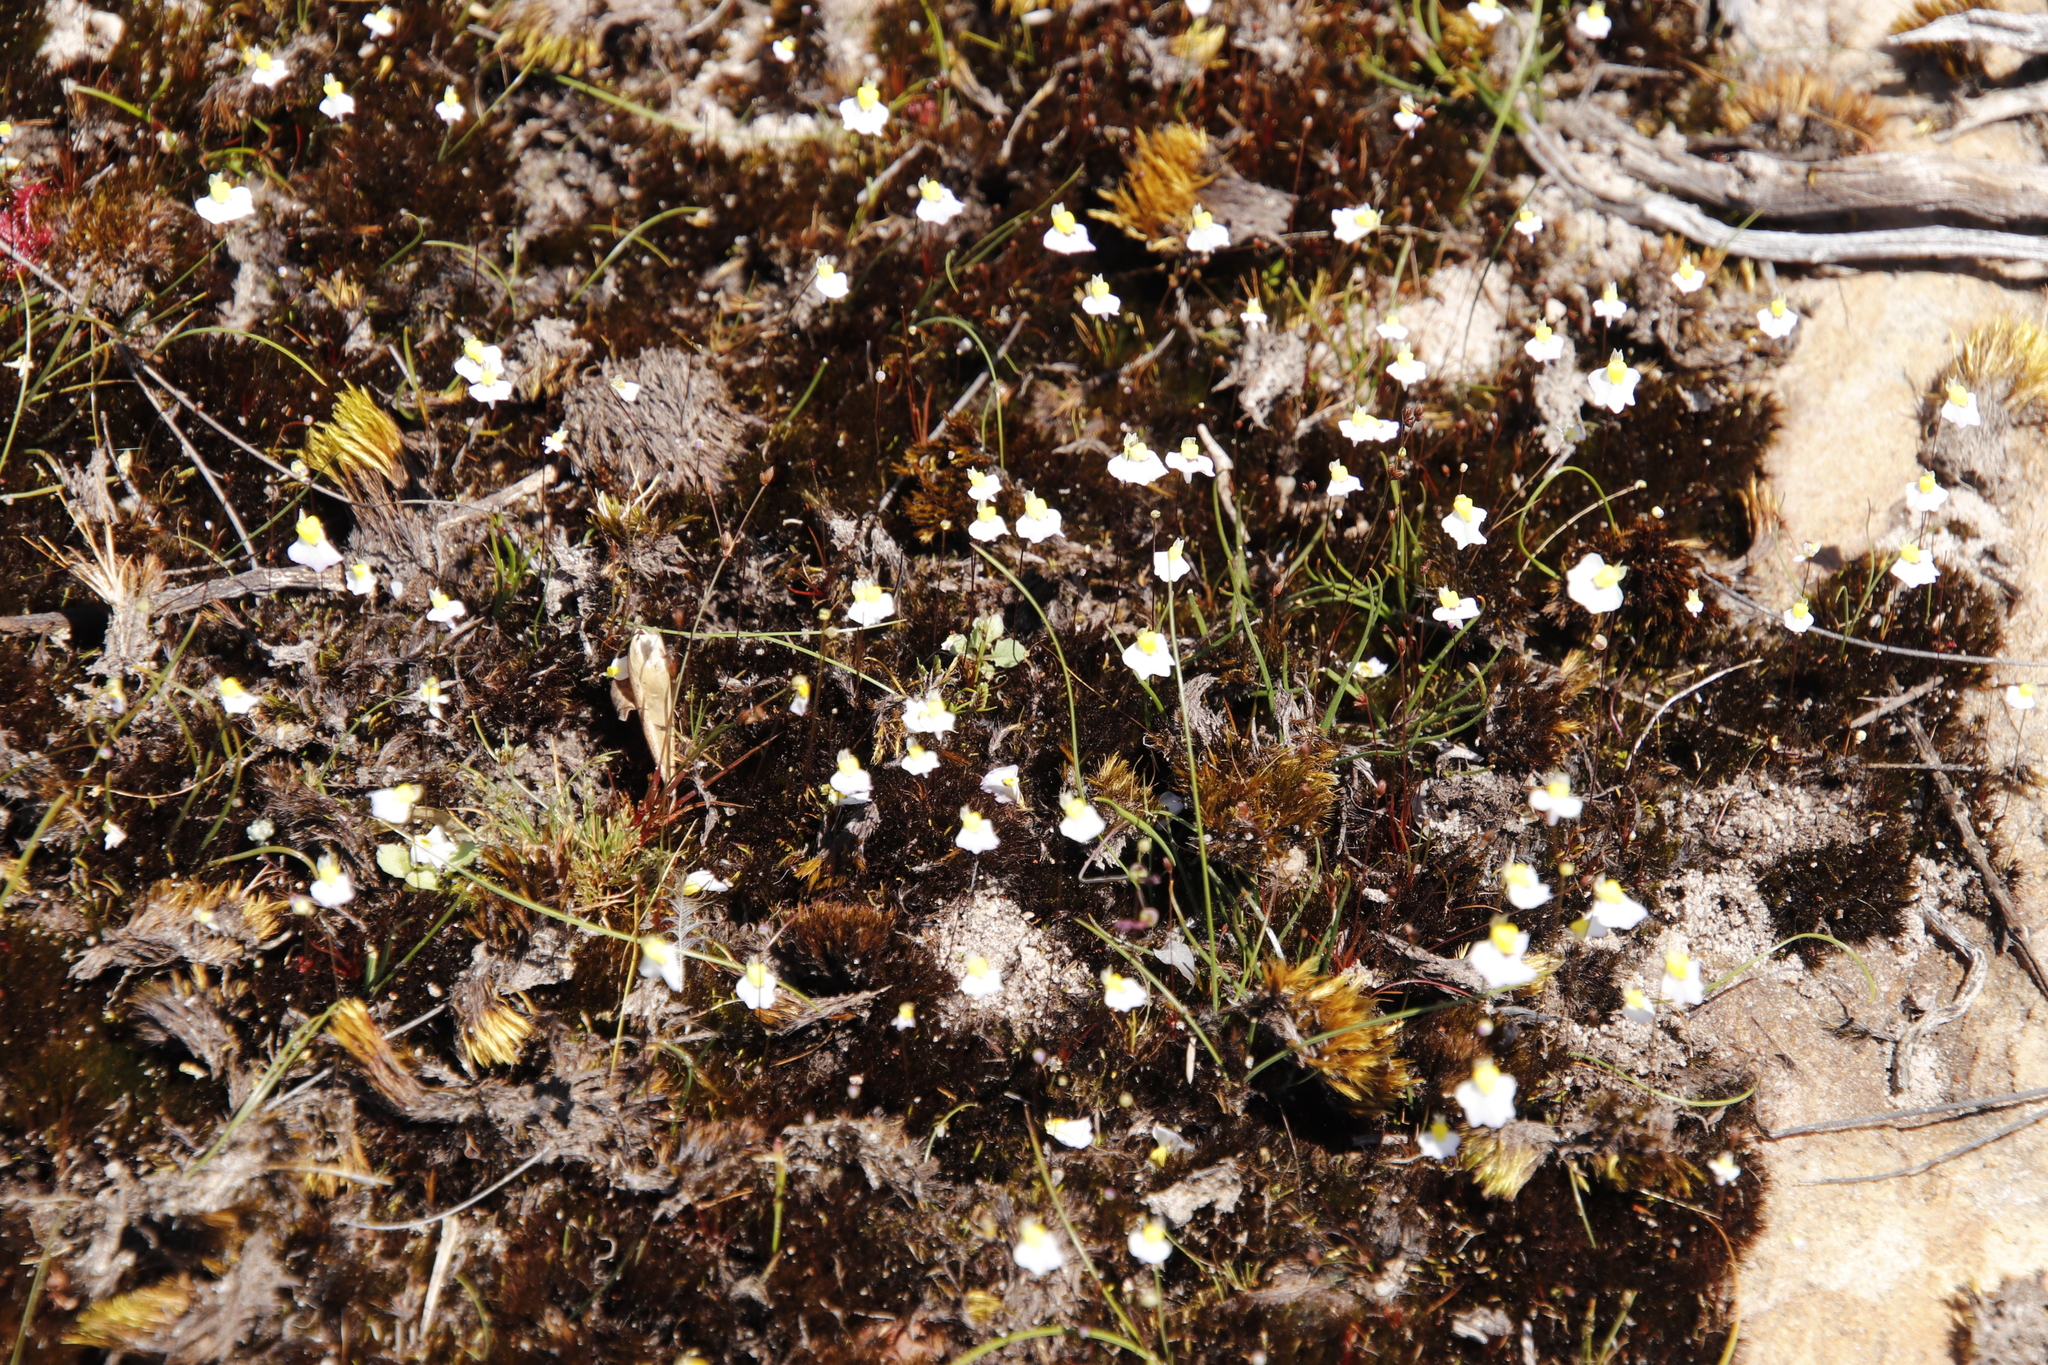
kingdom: Plantae
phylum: Tracheophyta
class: Magnoliopsida
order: Lamiales
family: Lentibulariaceae
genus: Utricularia
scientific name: Utricularia bisquamata
